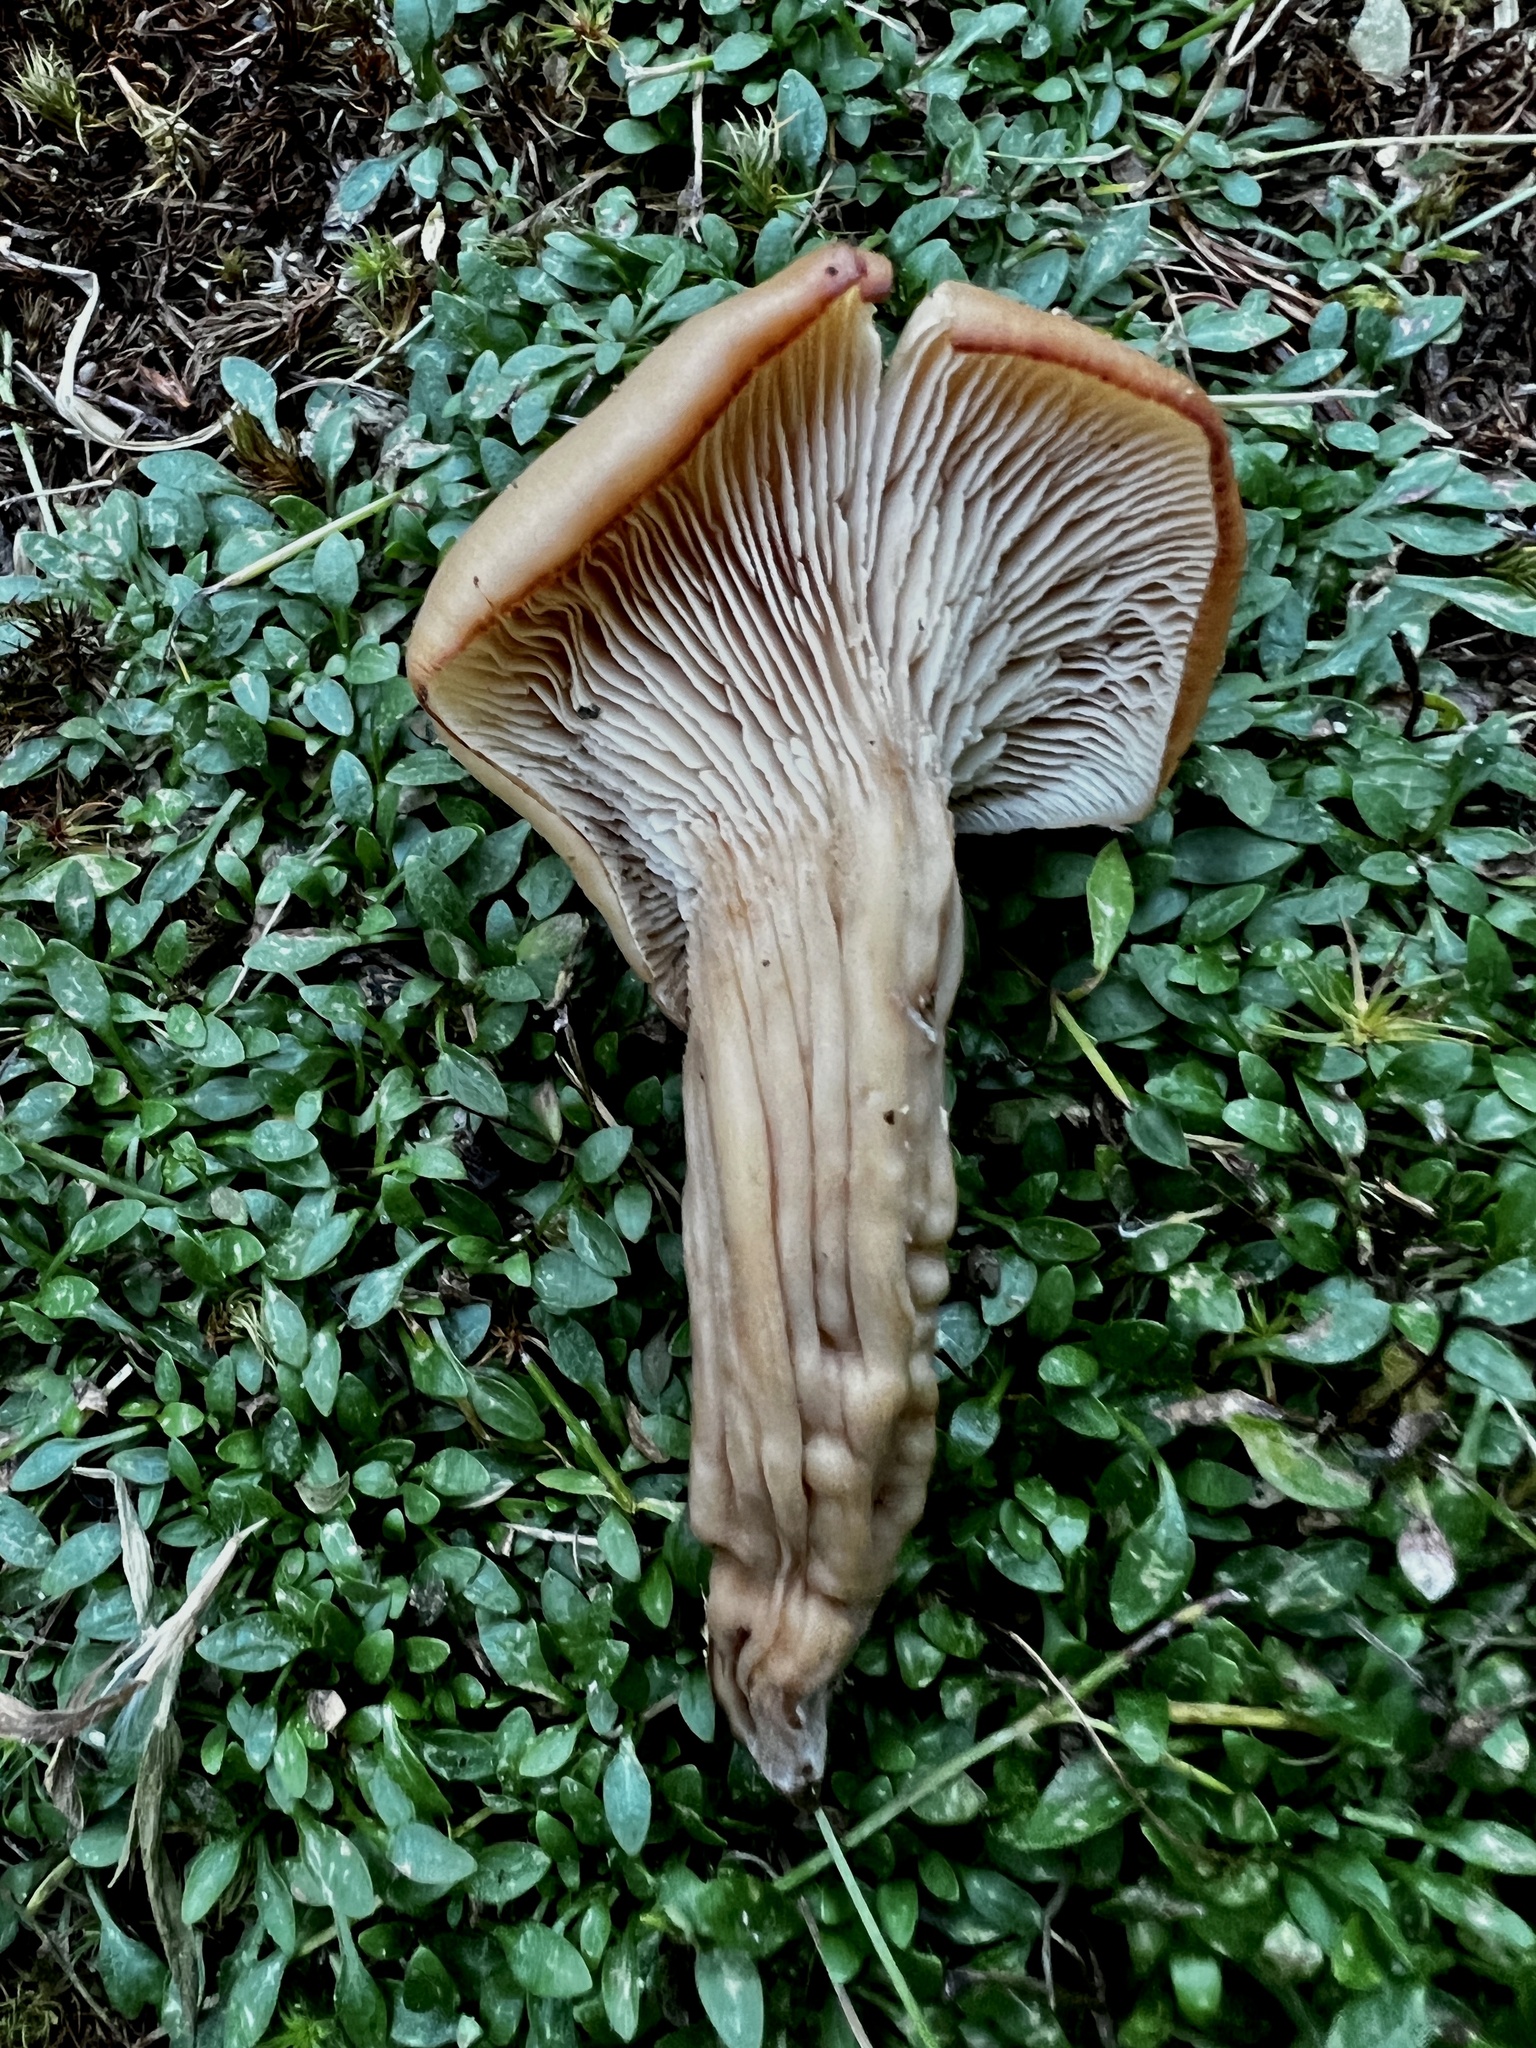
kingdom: Fungi
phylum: Basidiomycota
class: Agaricomycetes
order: Russulales
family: Auriscalpiaceae
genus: Lentinellus
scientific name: Lentinellus cochleatus
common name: Aniseed cockleshell
